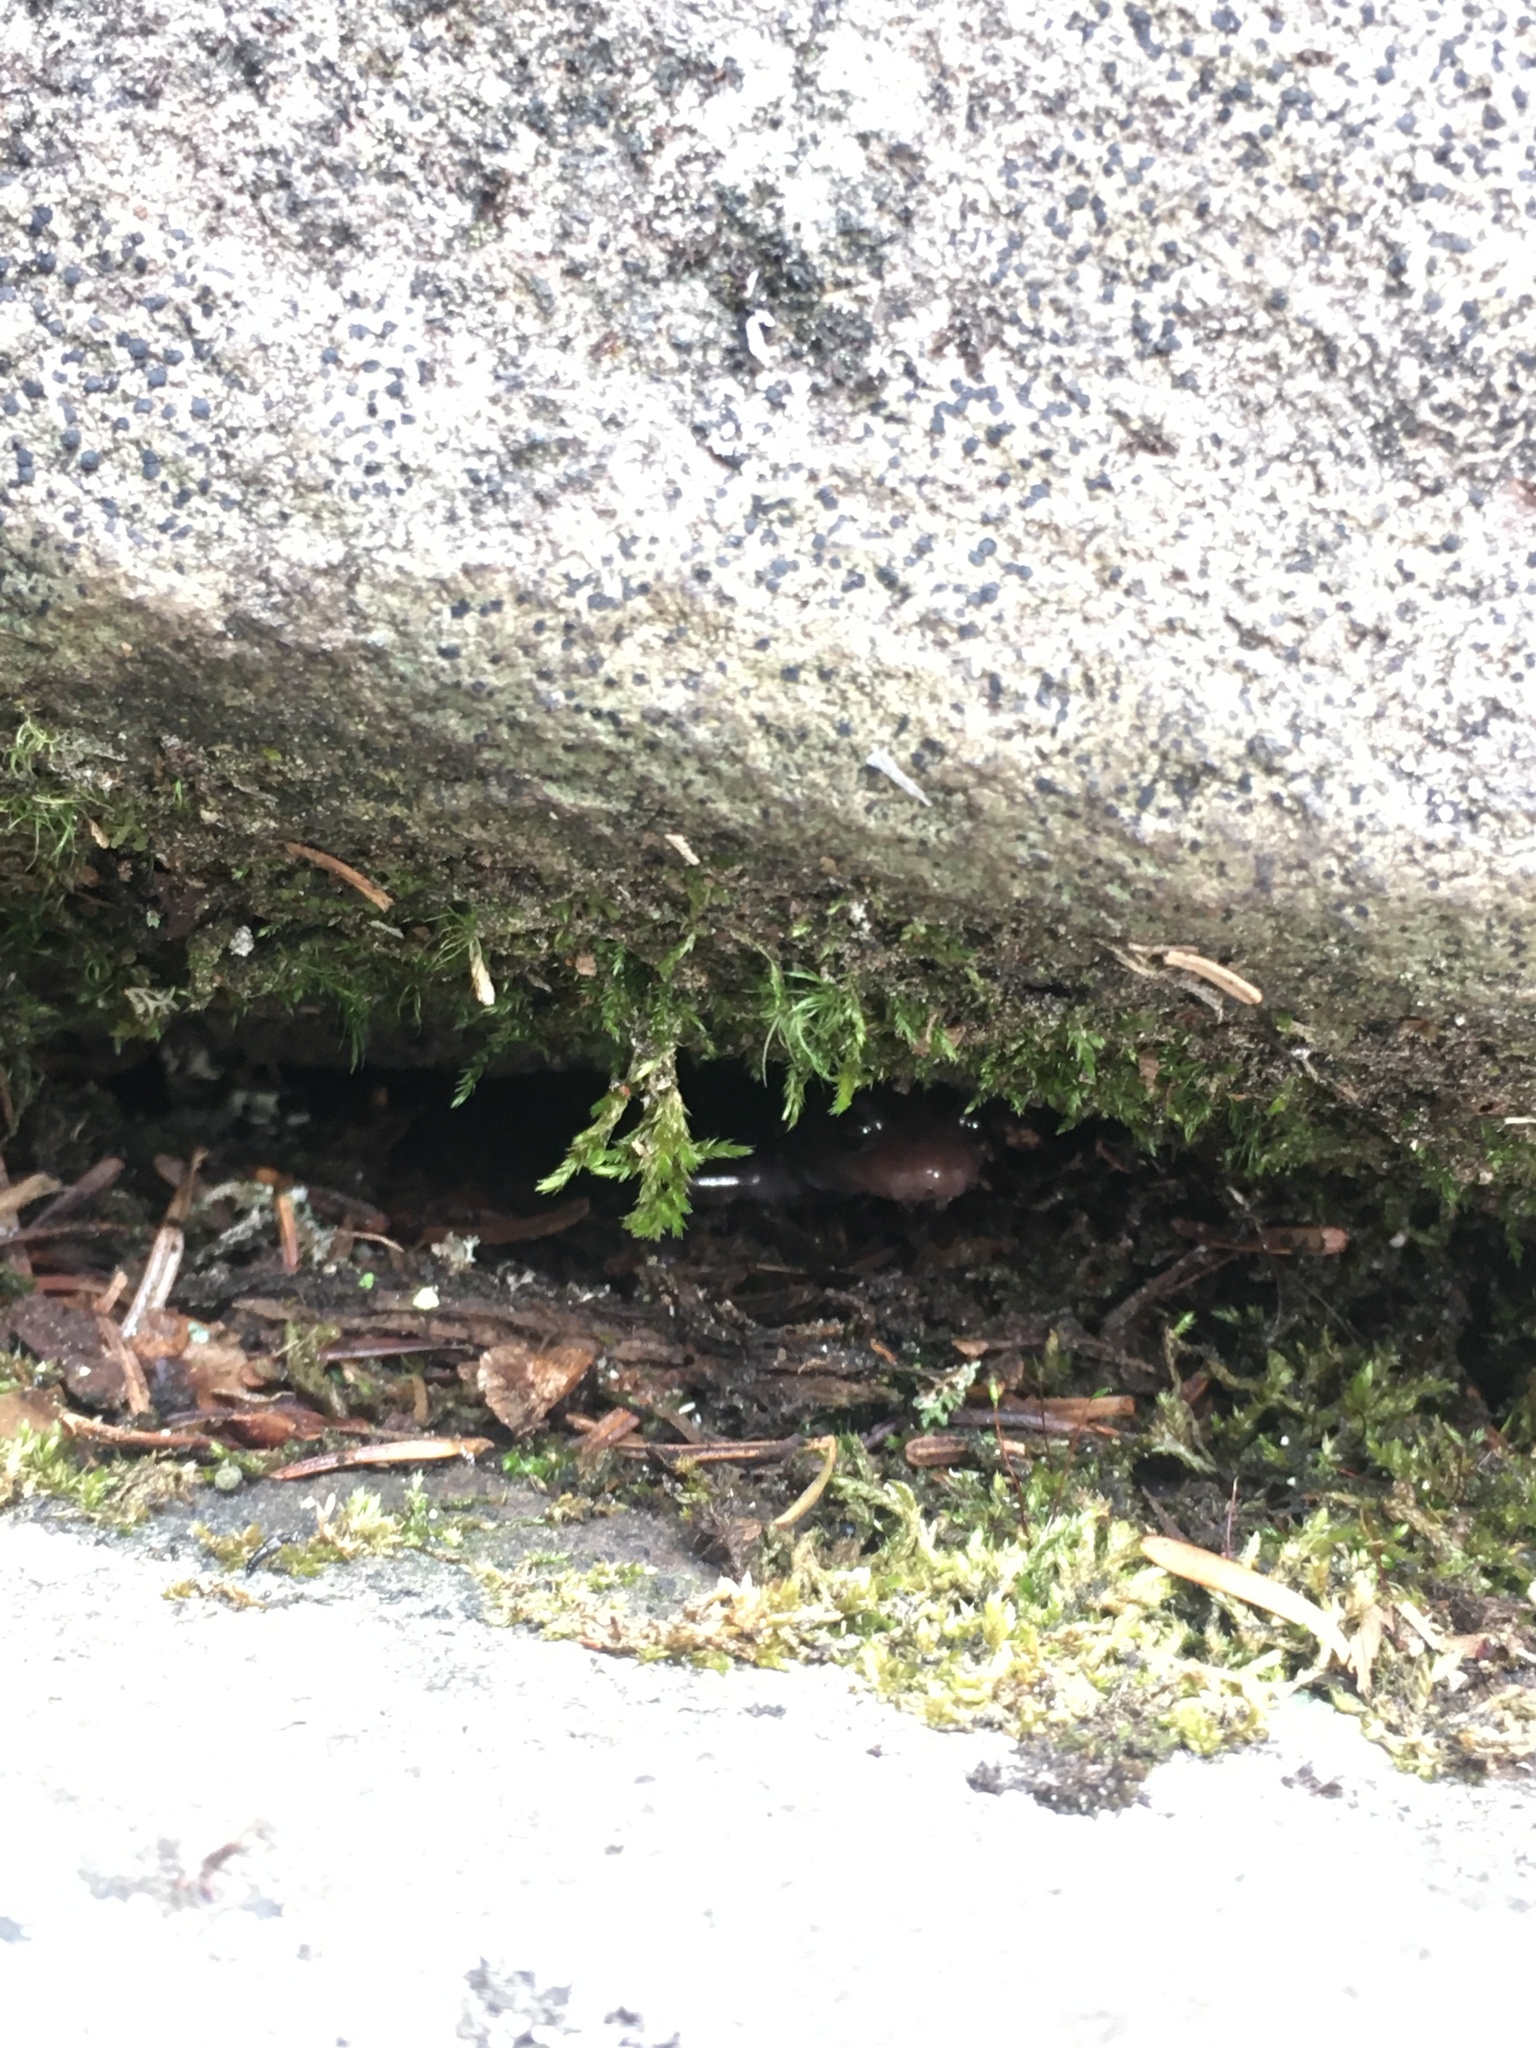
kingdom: Animalia
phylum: Chordata
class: Amphibia
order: Caudata
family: Plethodontidae
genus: Plethodon
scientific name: Plethodon montanus
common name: Northern gray-cheeked salamander
